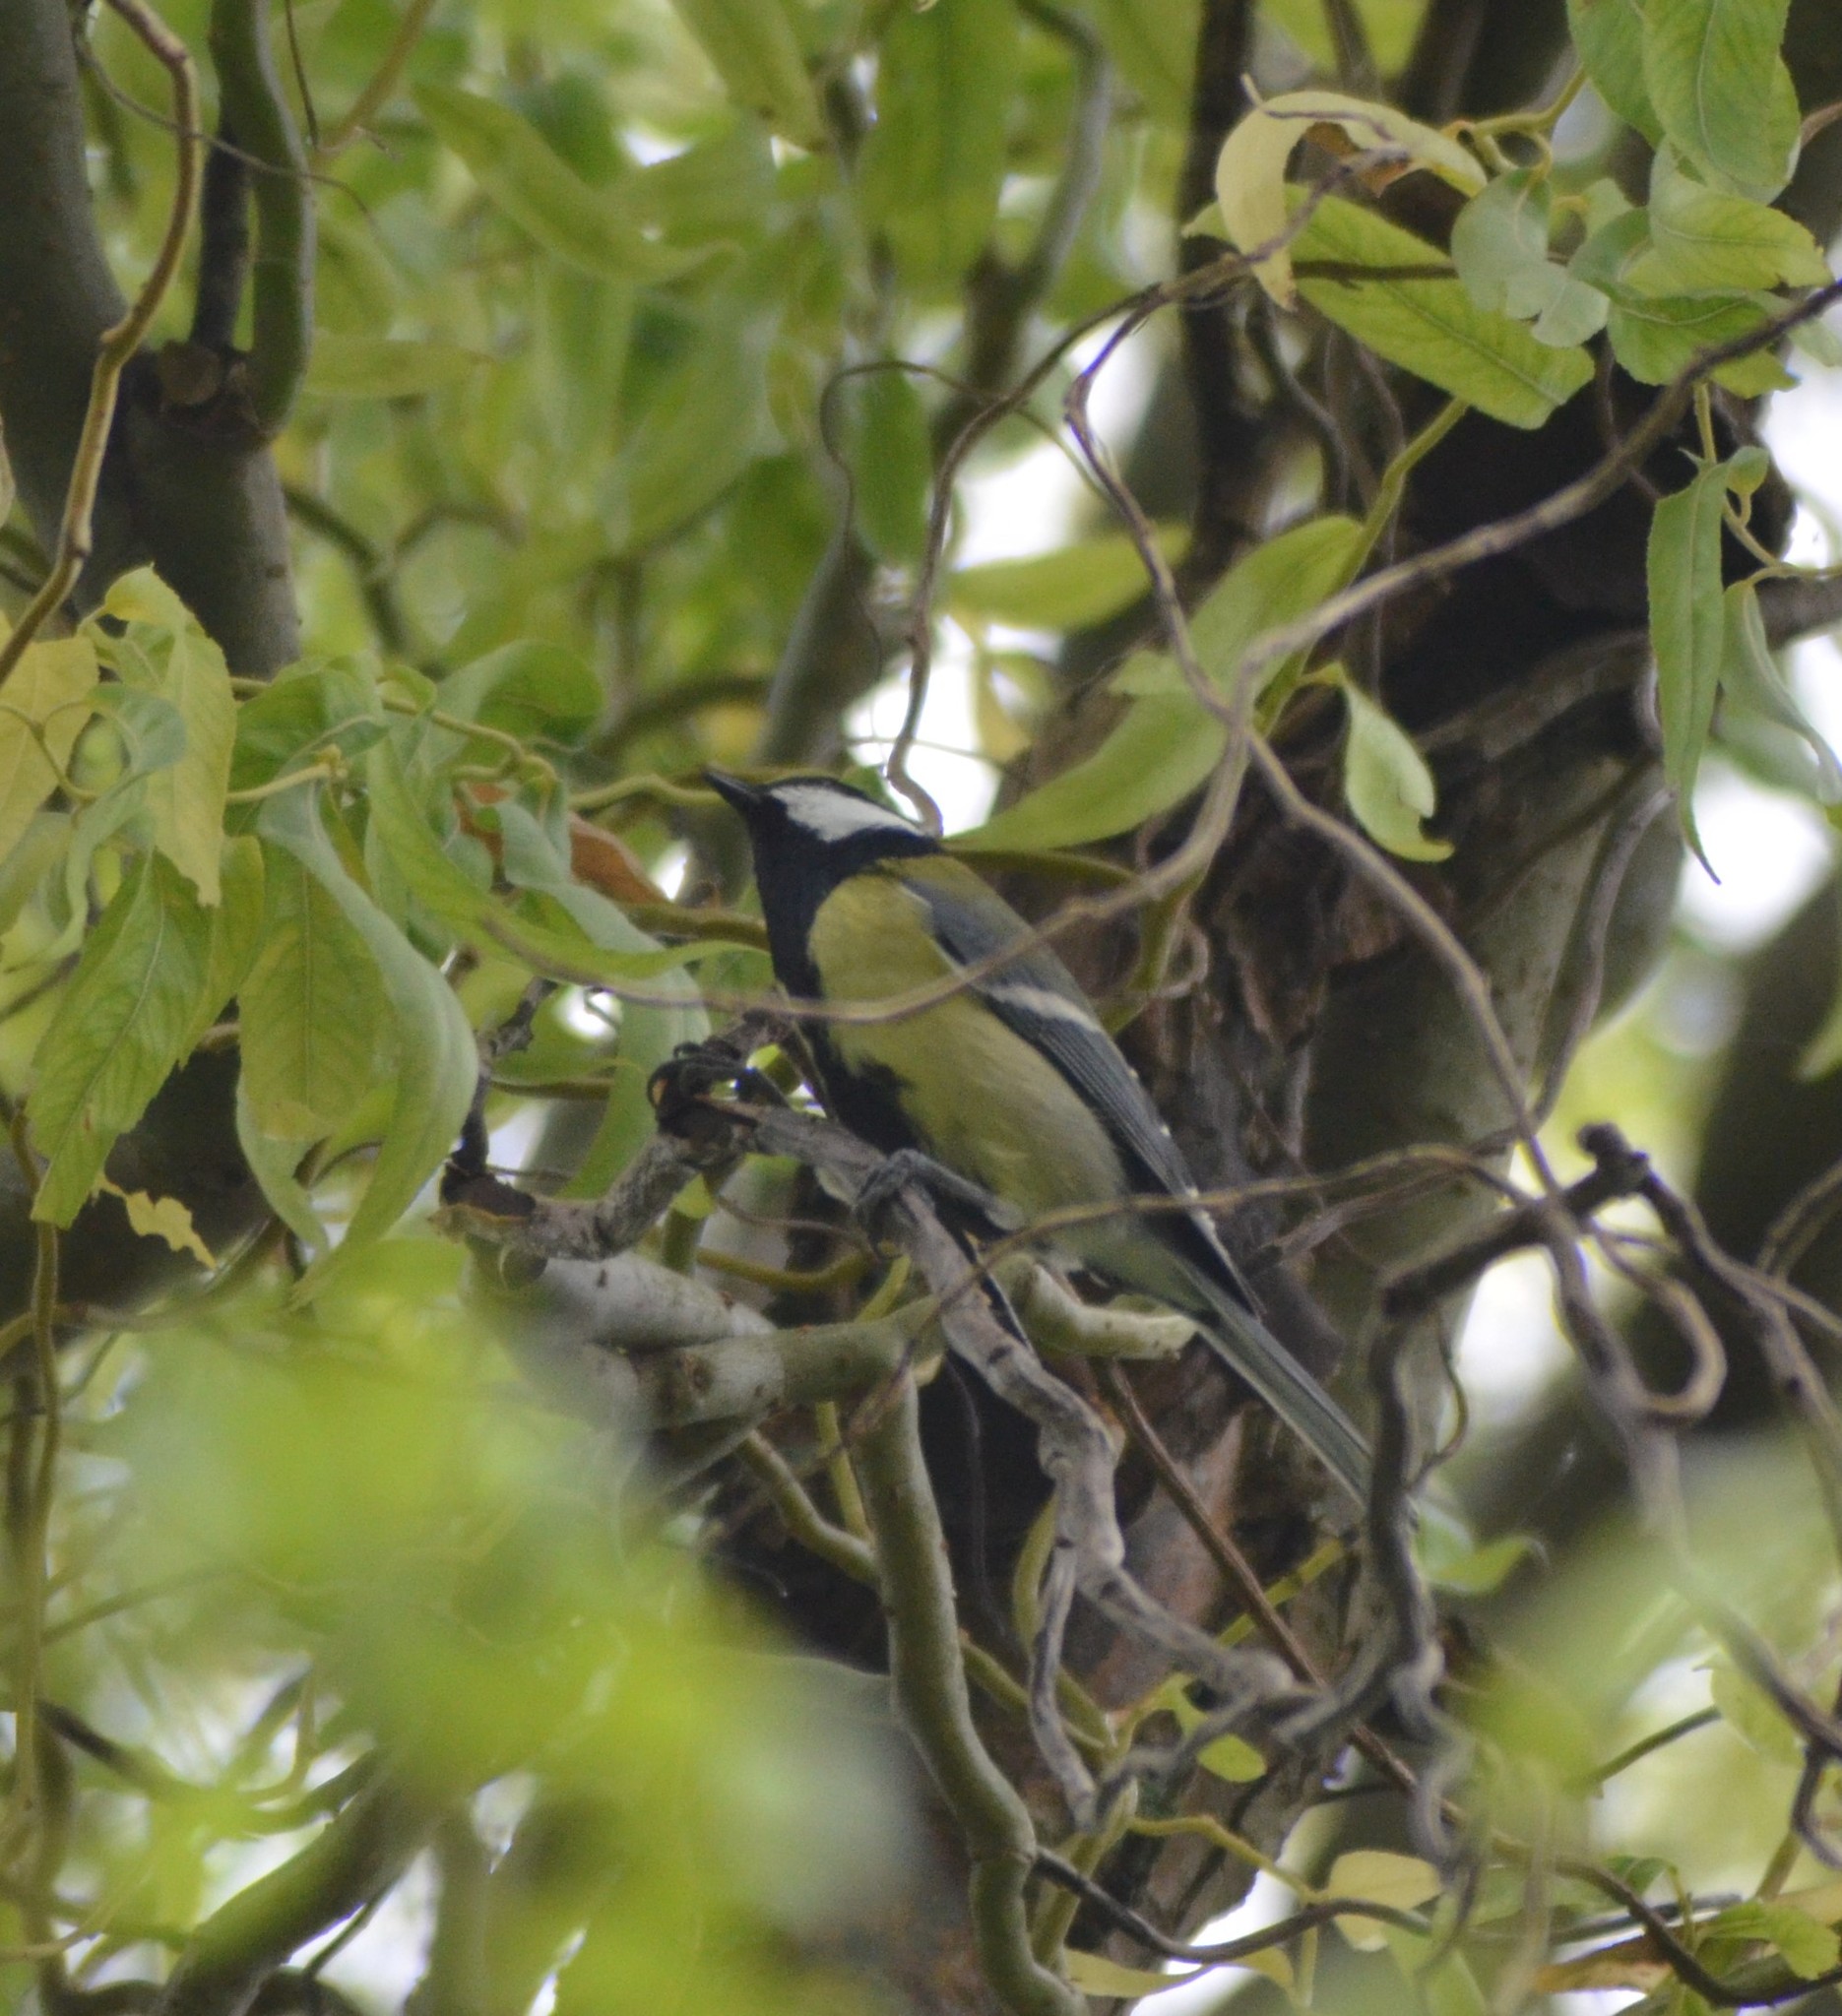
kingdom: Animalia
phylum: Chordata
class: Aves
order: Passeriformes
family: Paridae
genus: Parus
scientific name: Parus major
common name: Great tit
